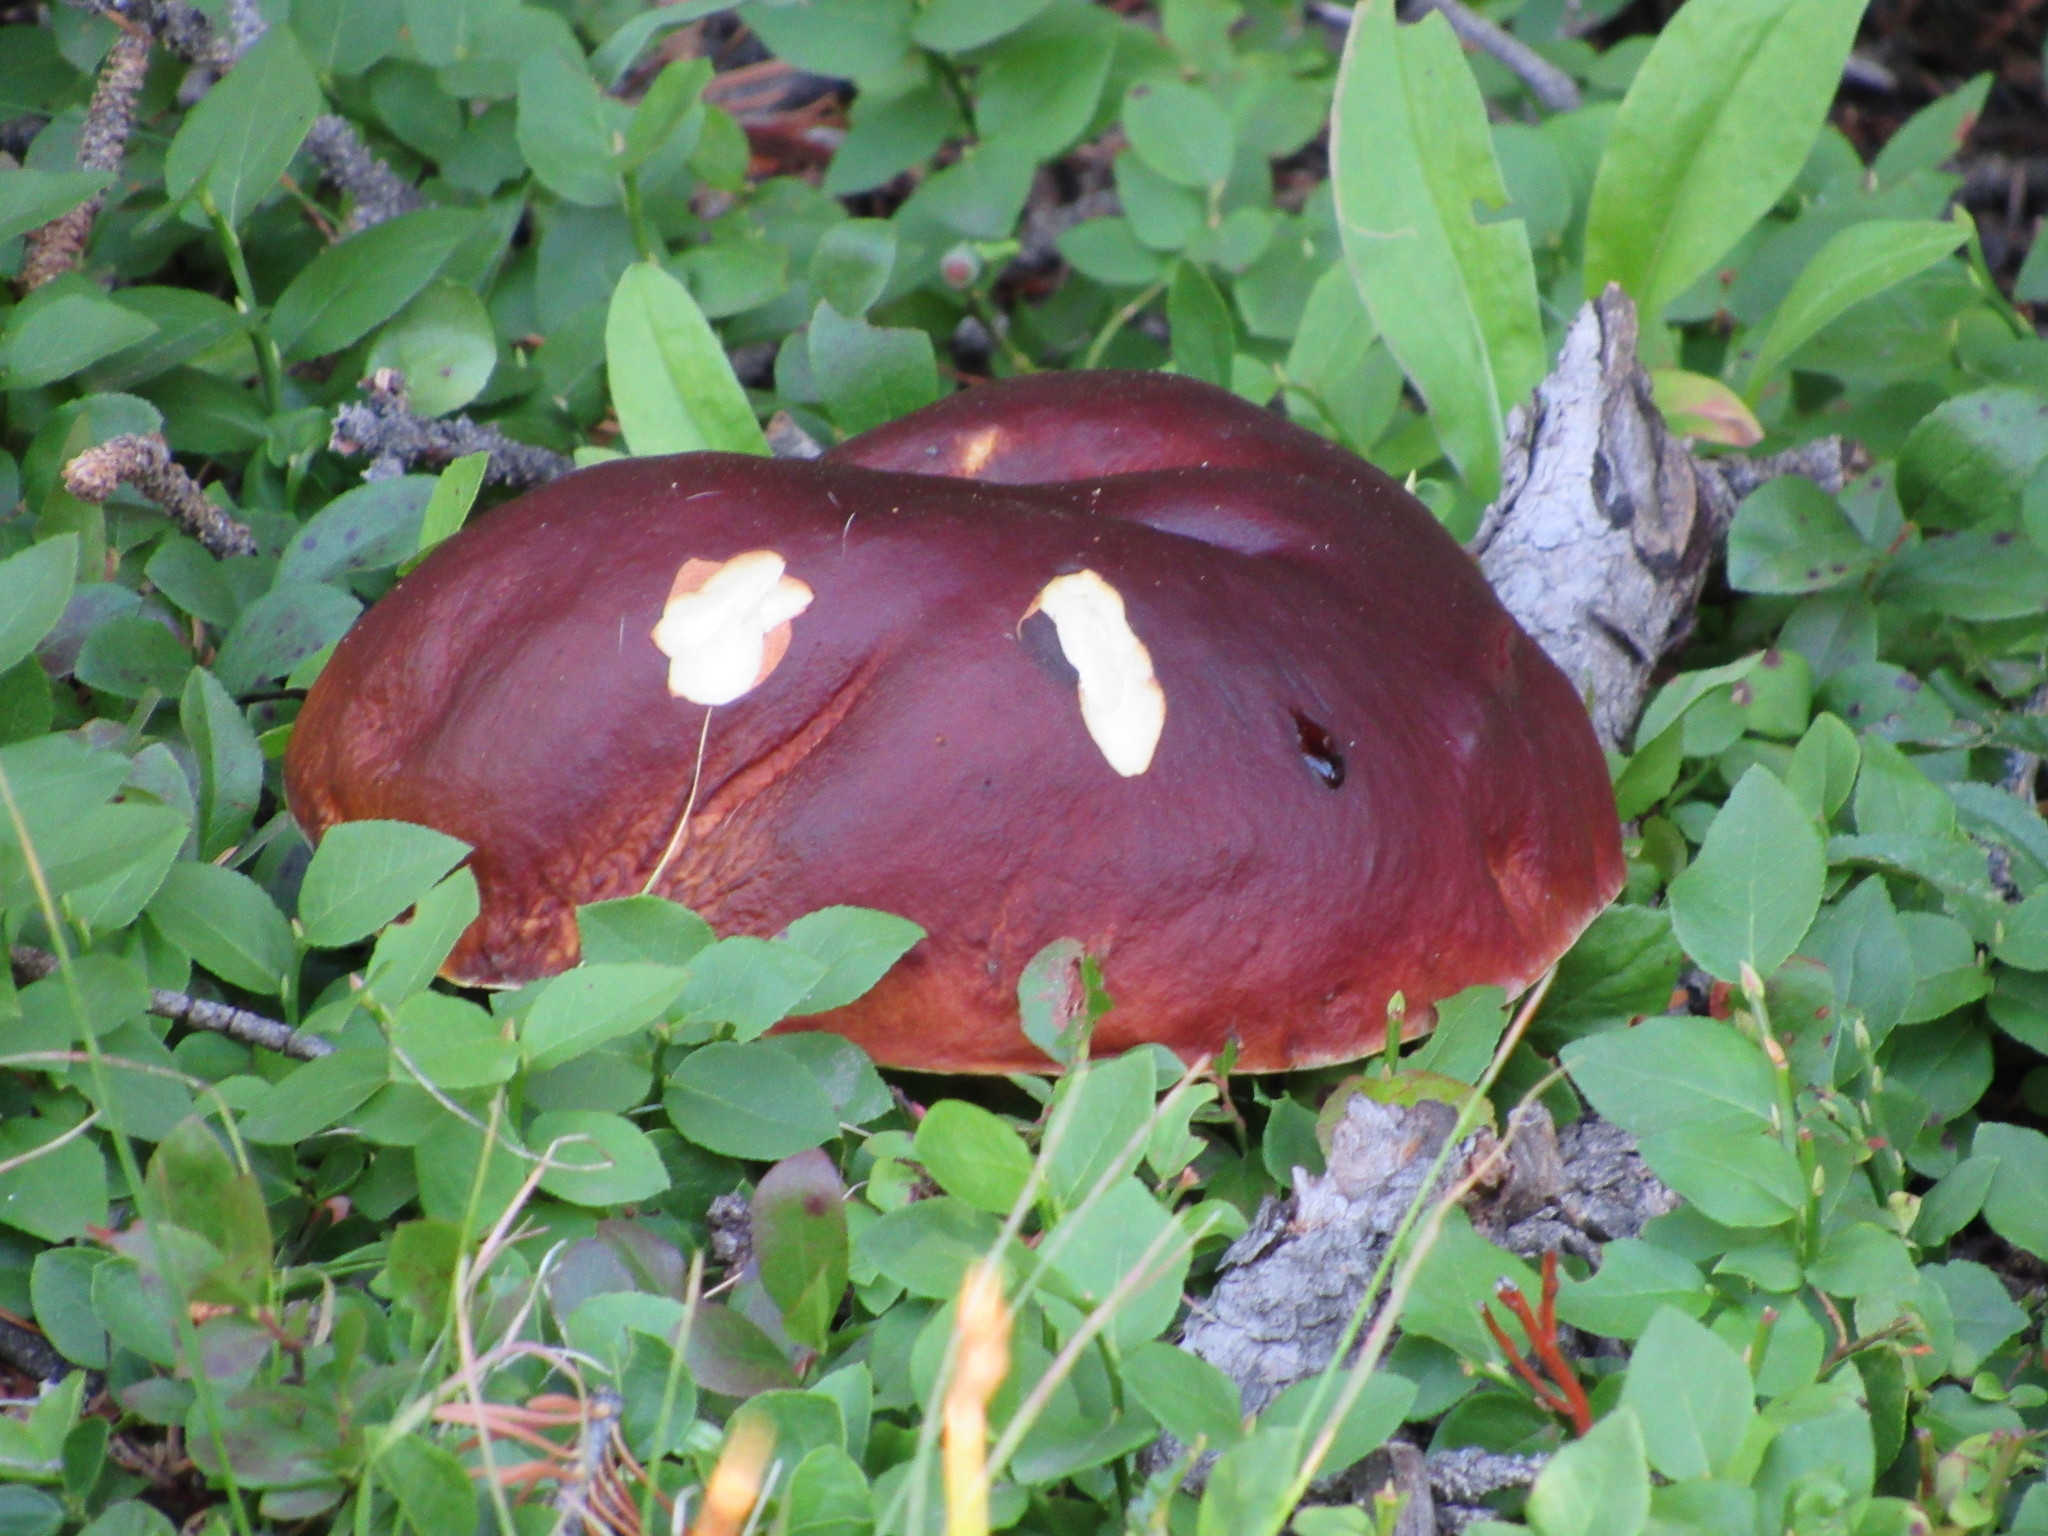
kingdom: Fungi
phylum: Basidiomycota
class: Agaricomycetes
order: Boletales
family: Boletaceae
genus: Boletus
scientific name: Boletus rubriceps
